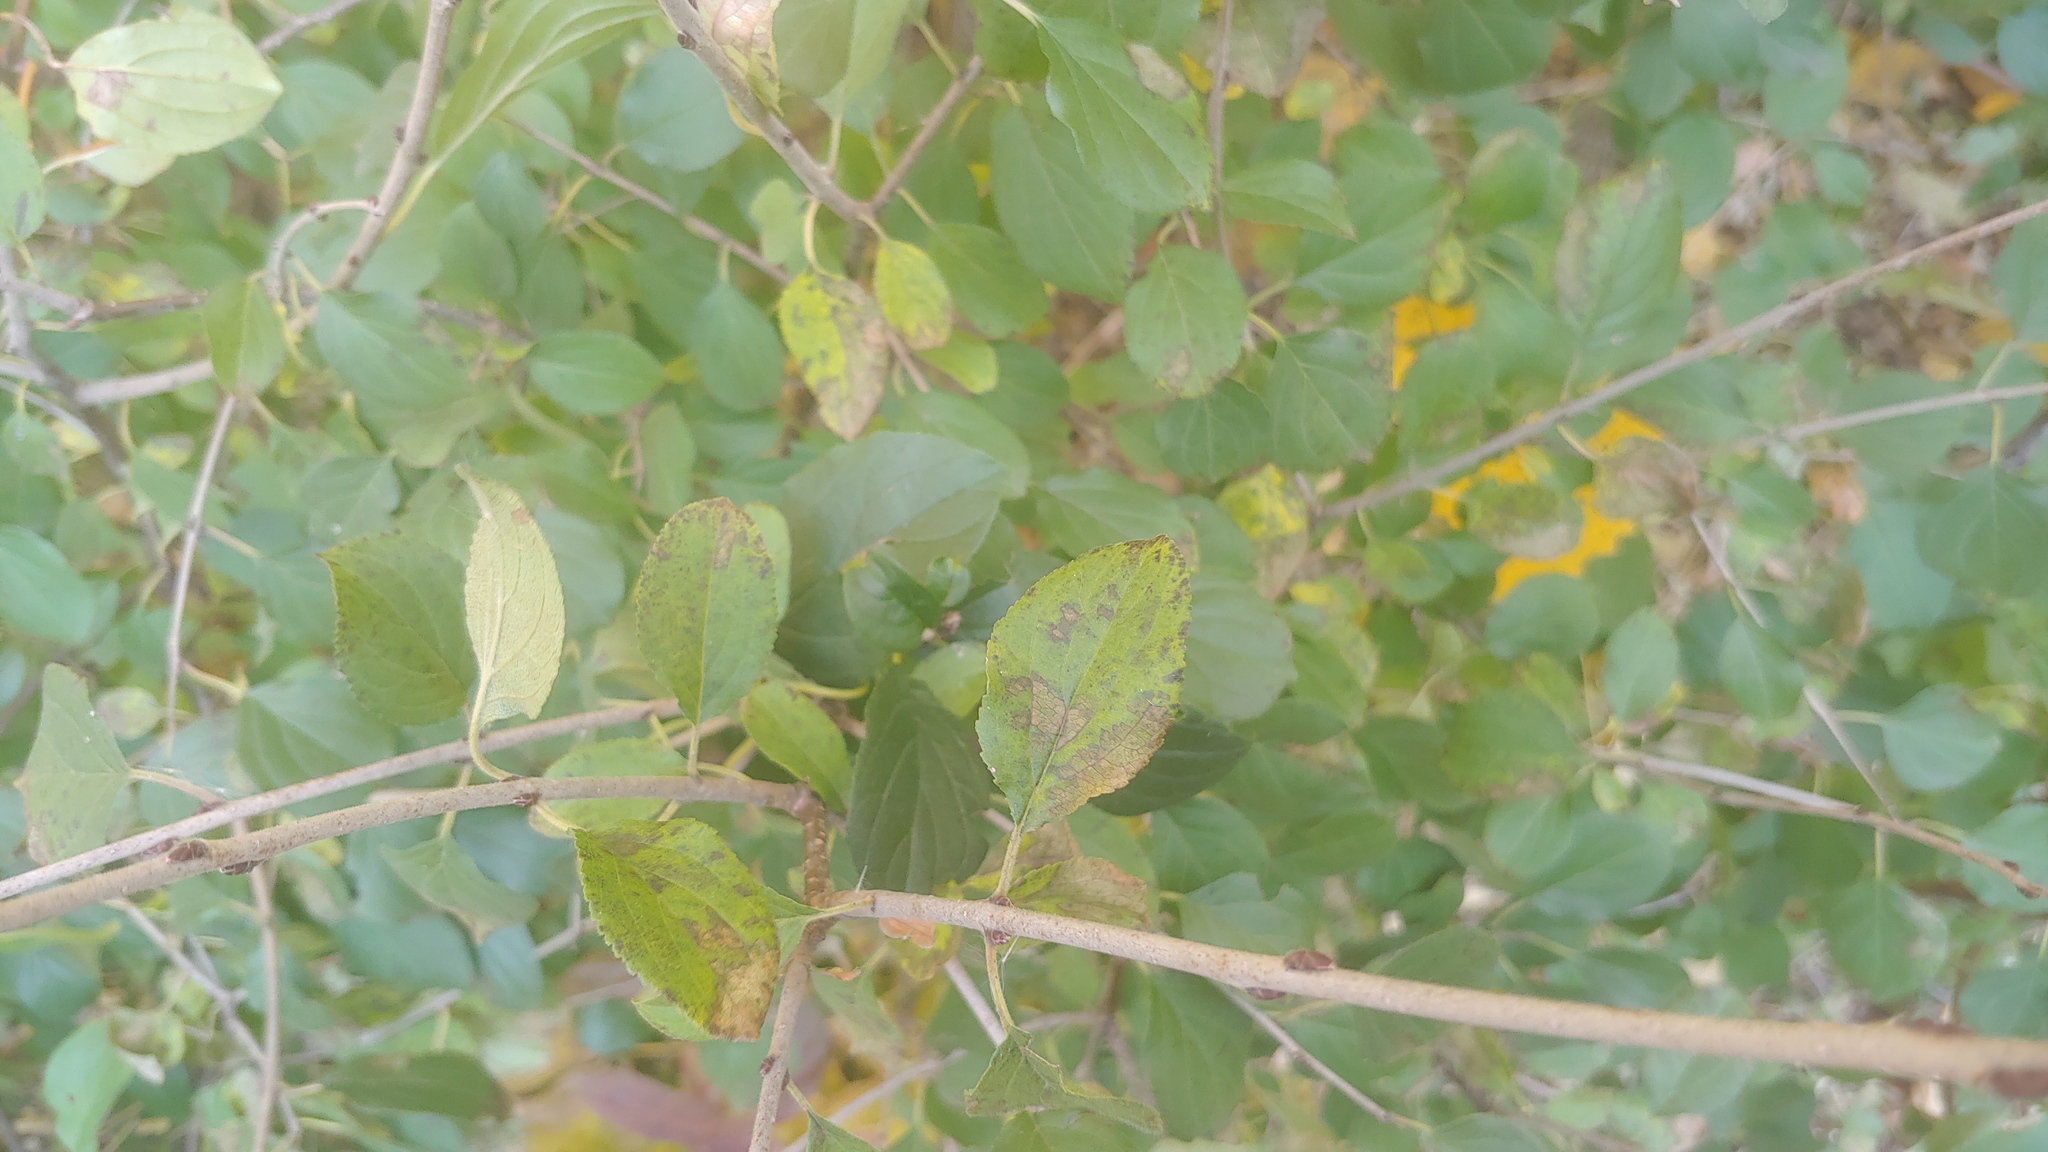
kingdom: Plantae
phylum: Tracheophyta
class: Magnoliopsida
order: Rosales
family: Rhamnaceae
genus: Rhamnus
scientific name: Rhamnus cathartica
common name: Common buckthorn
